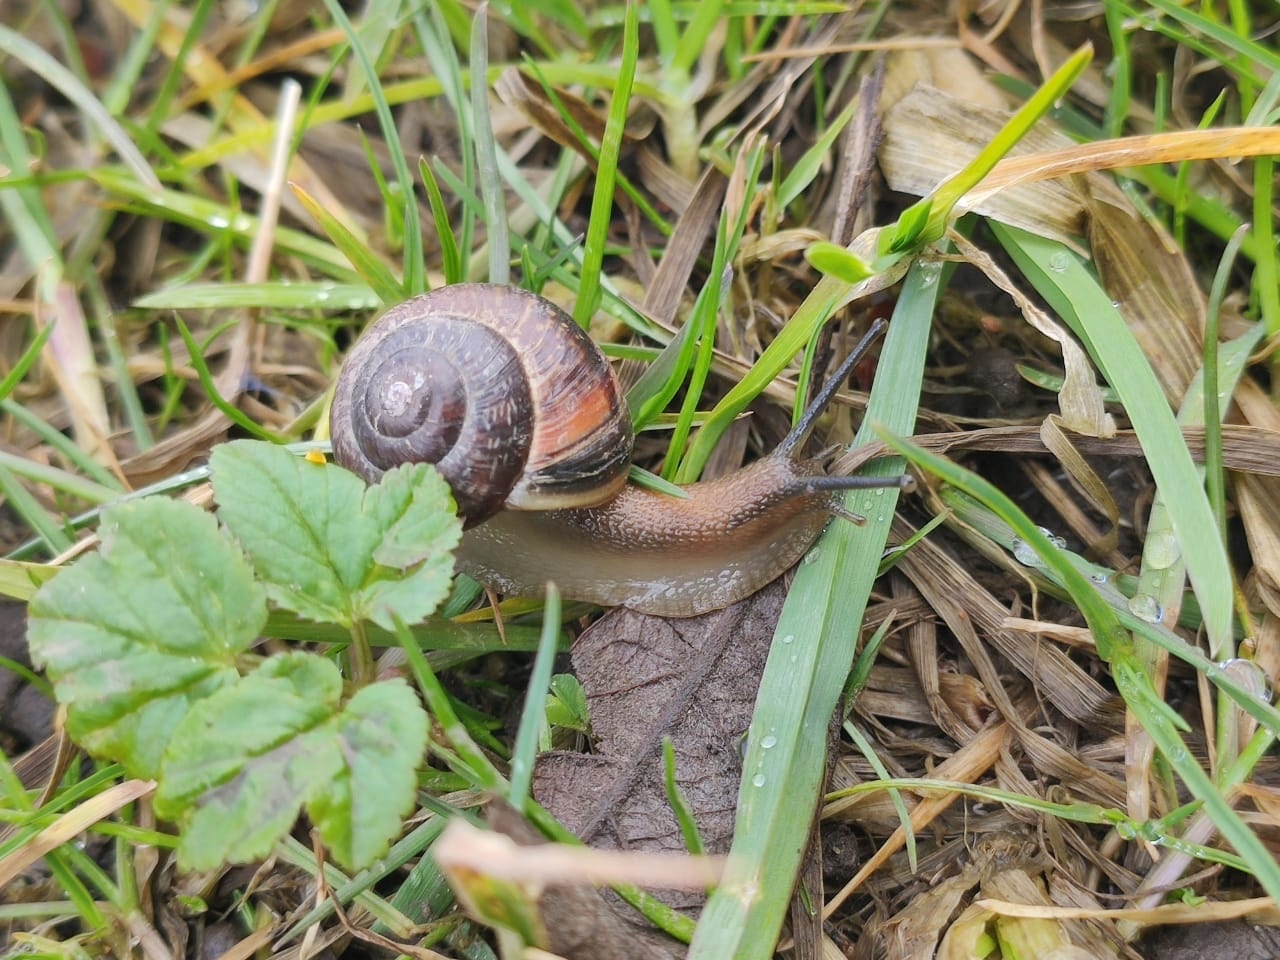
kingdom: Animalia
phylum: Mollusca
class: Gastropoda
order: Stylommatophora
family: Helicidae
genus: Arianta
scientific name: Arianta arbustorum
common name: Copse snail
